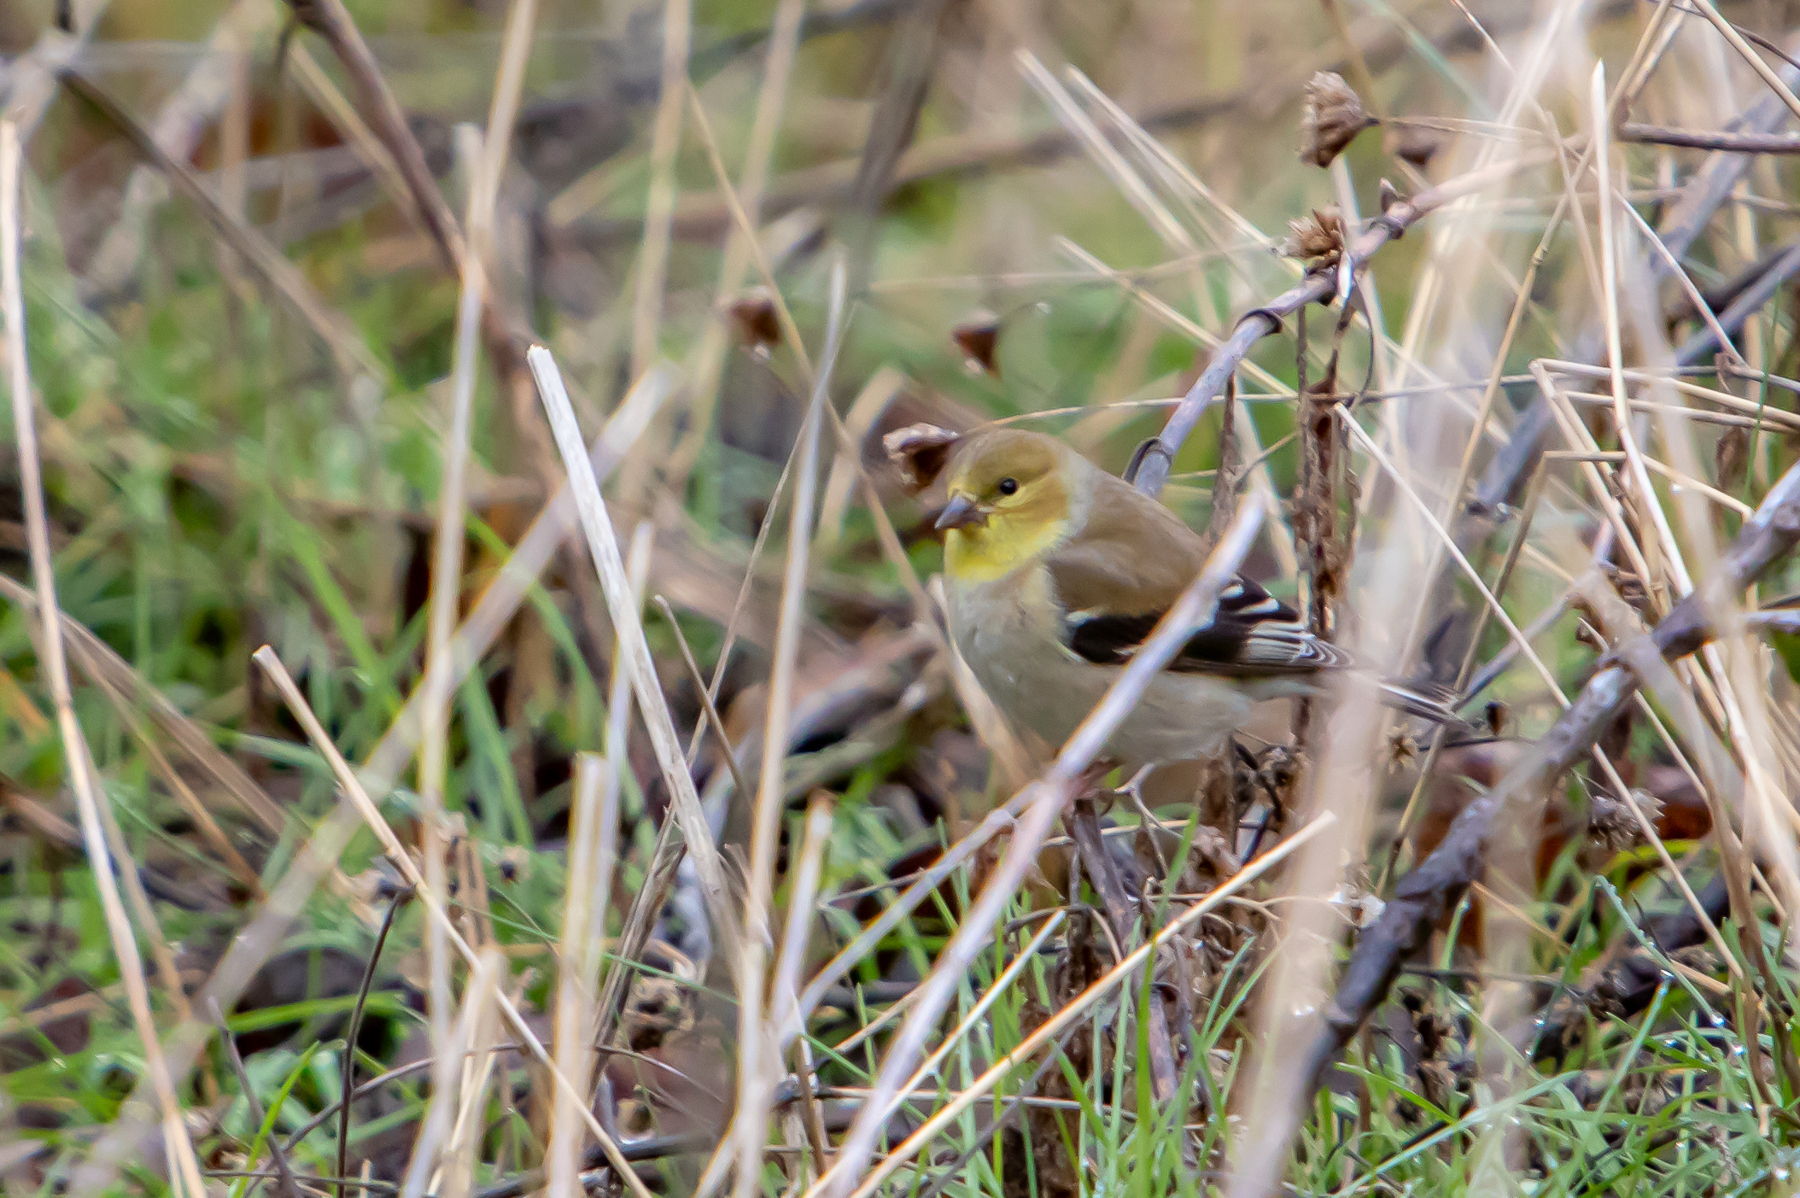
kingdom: Animalia
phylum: Chordata
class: Aves
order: Passeriformes
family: Fringillidae
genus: Spinus
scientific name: Spinus tristis
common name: American goldfinch
